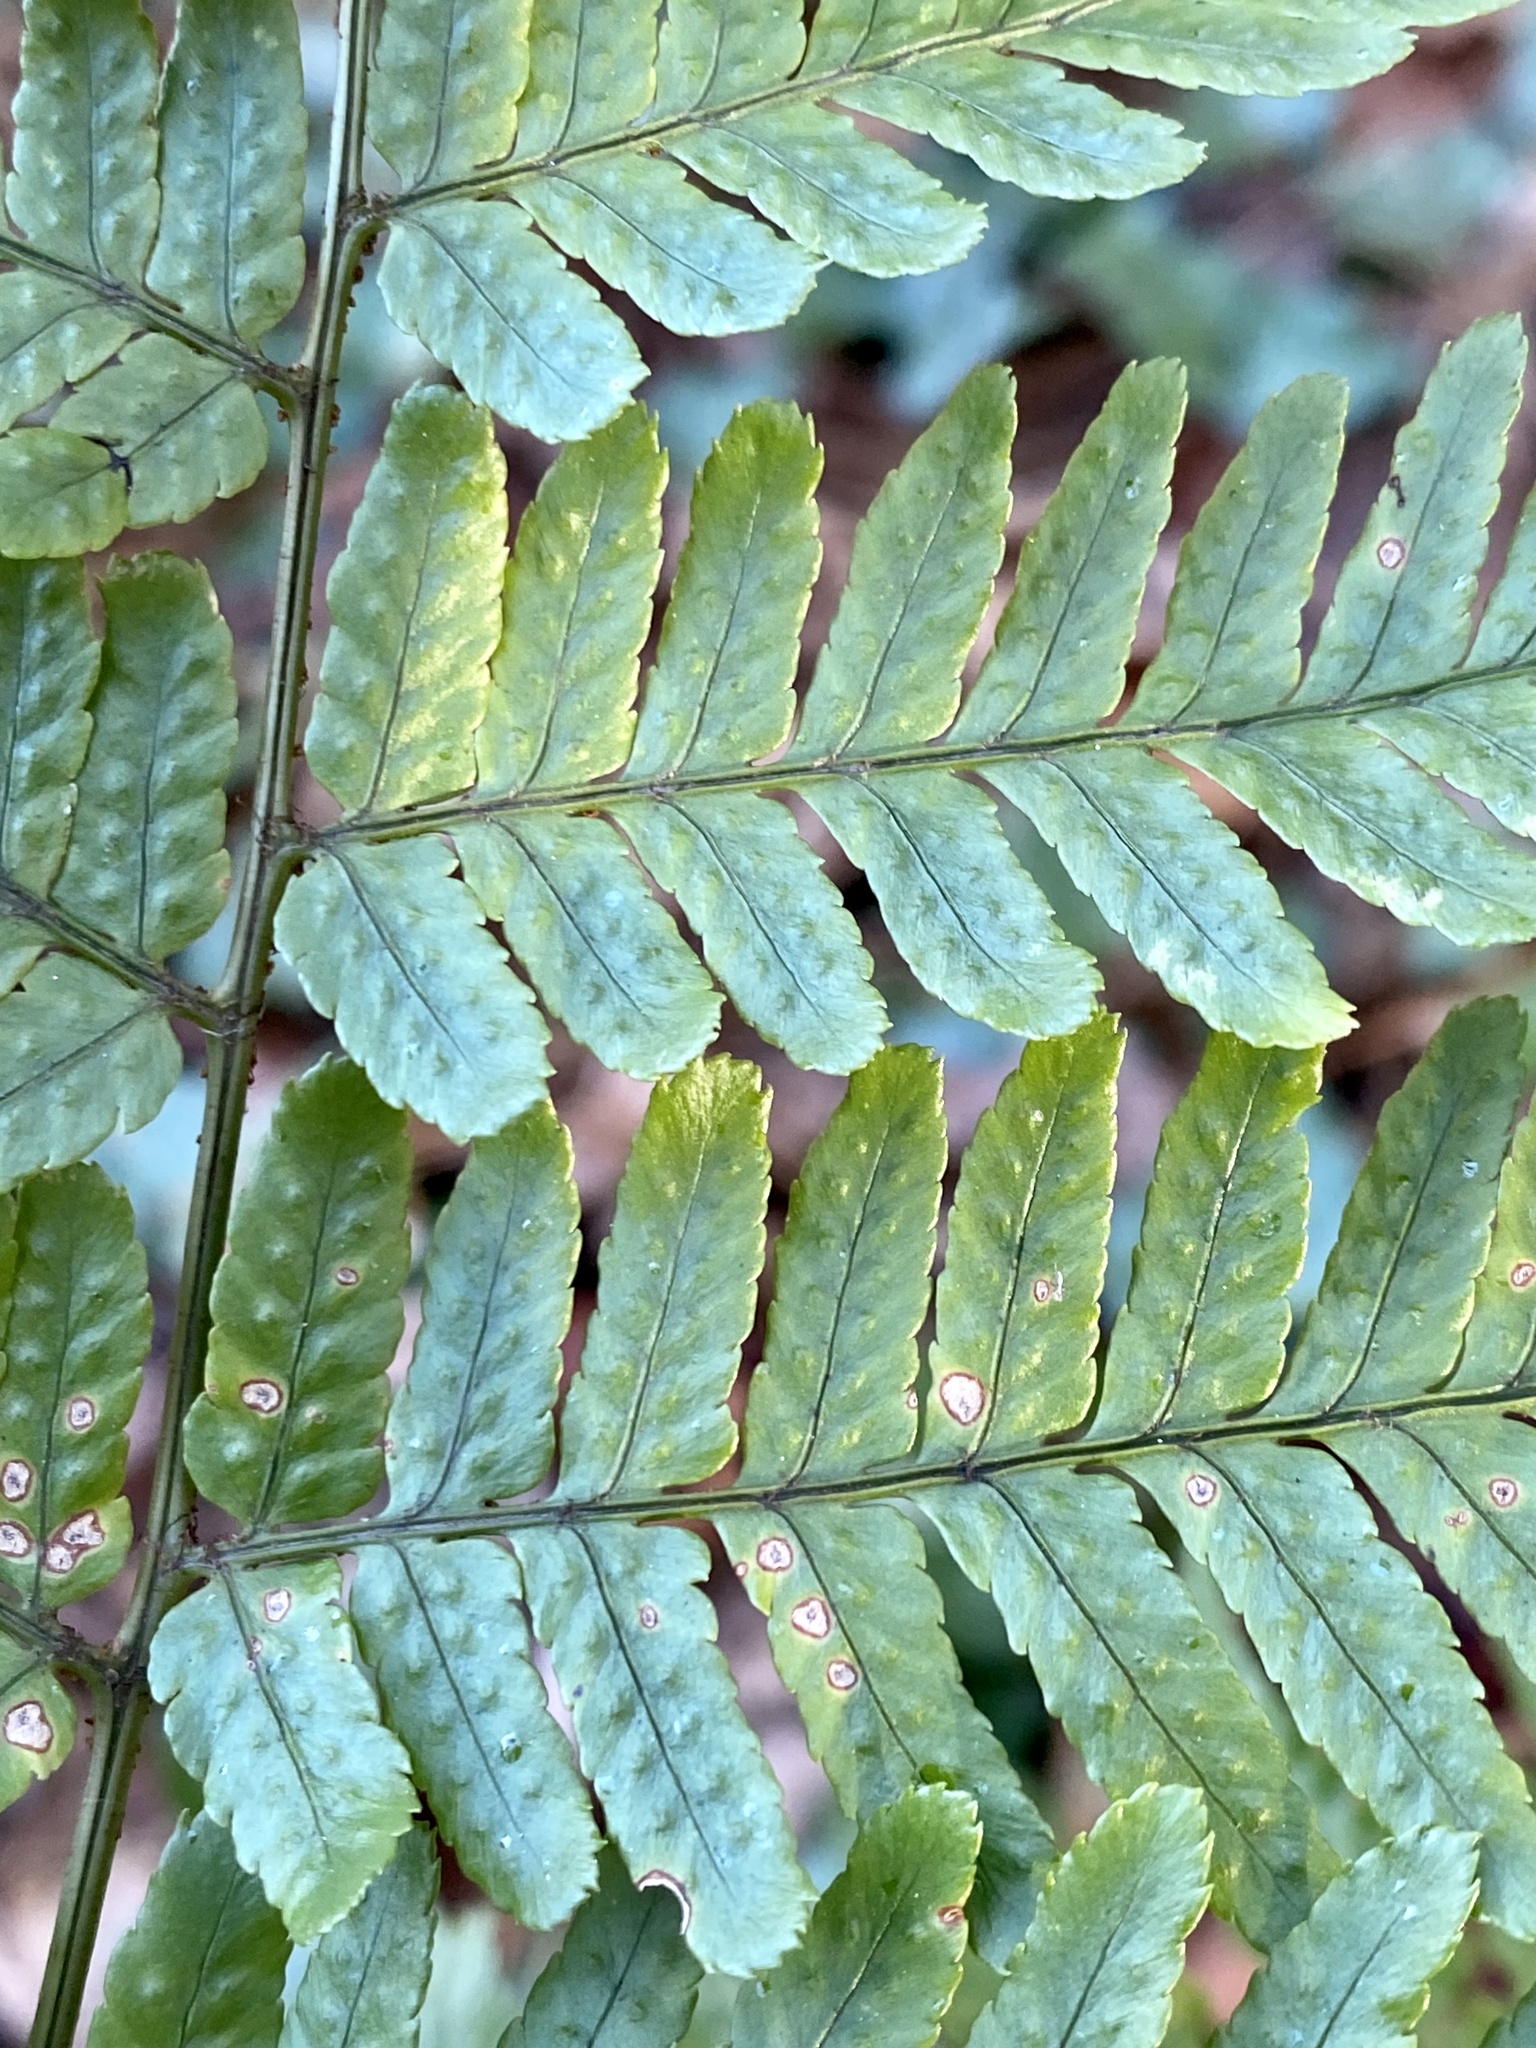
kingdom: Plantae
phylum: Tracheophyta
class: Polypodiopsida
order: Polypodiales
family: Dryopteridaceae
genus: Dryopteris
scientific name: Dryopteris erythrosora
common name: Autumn fern
